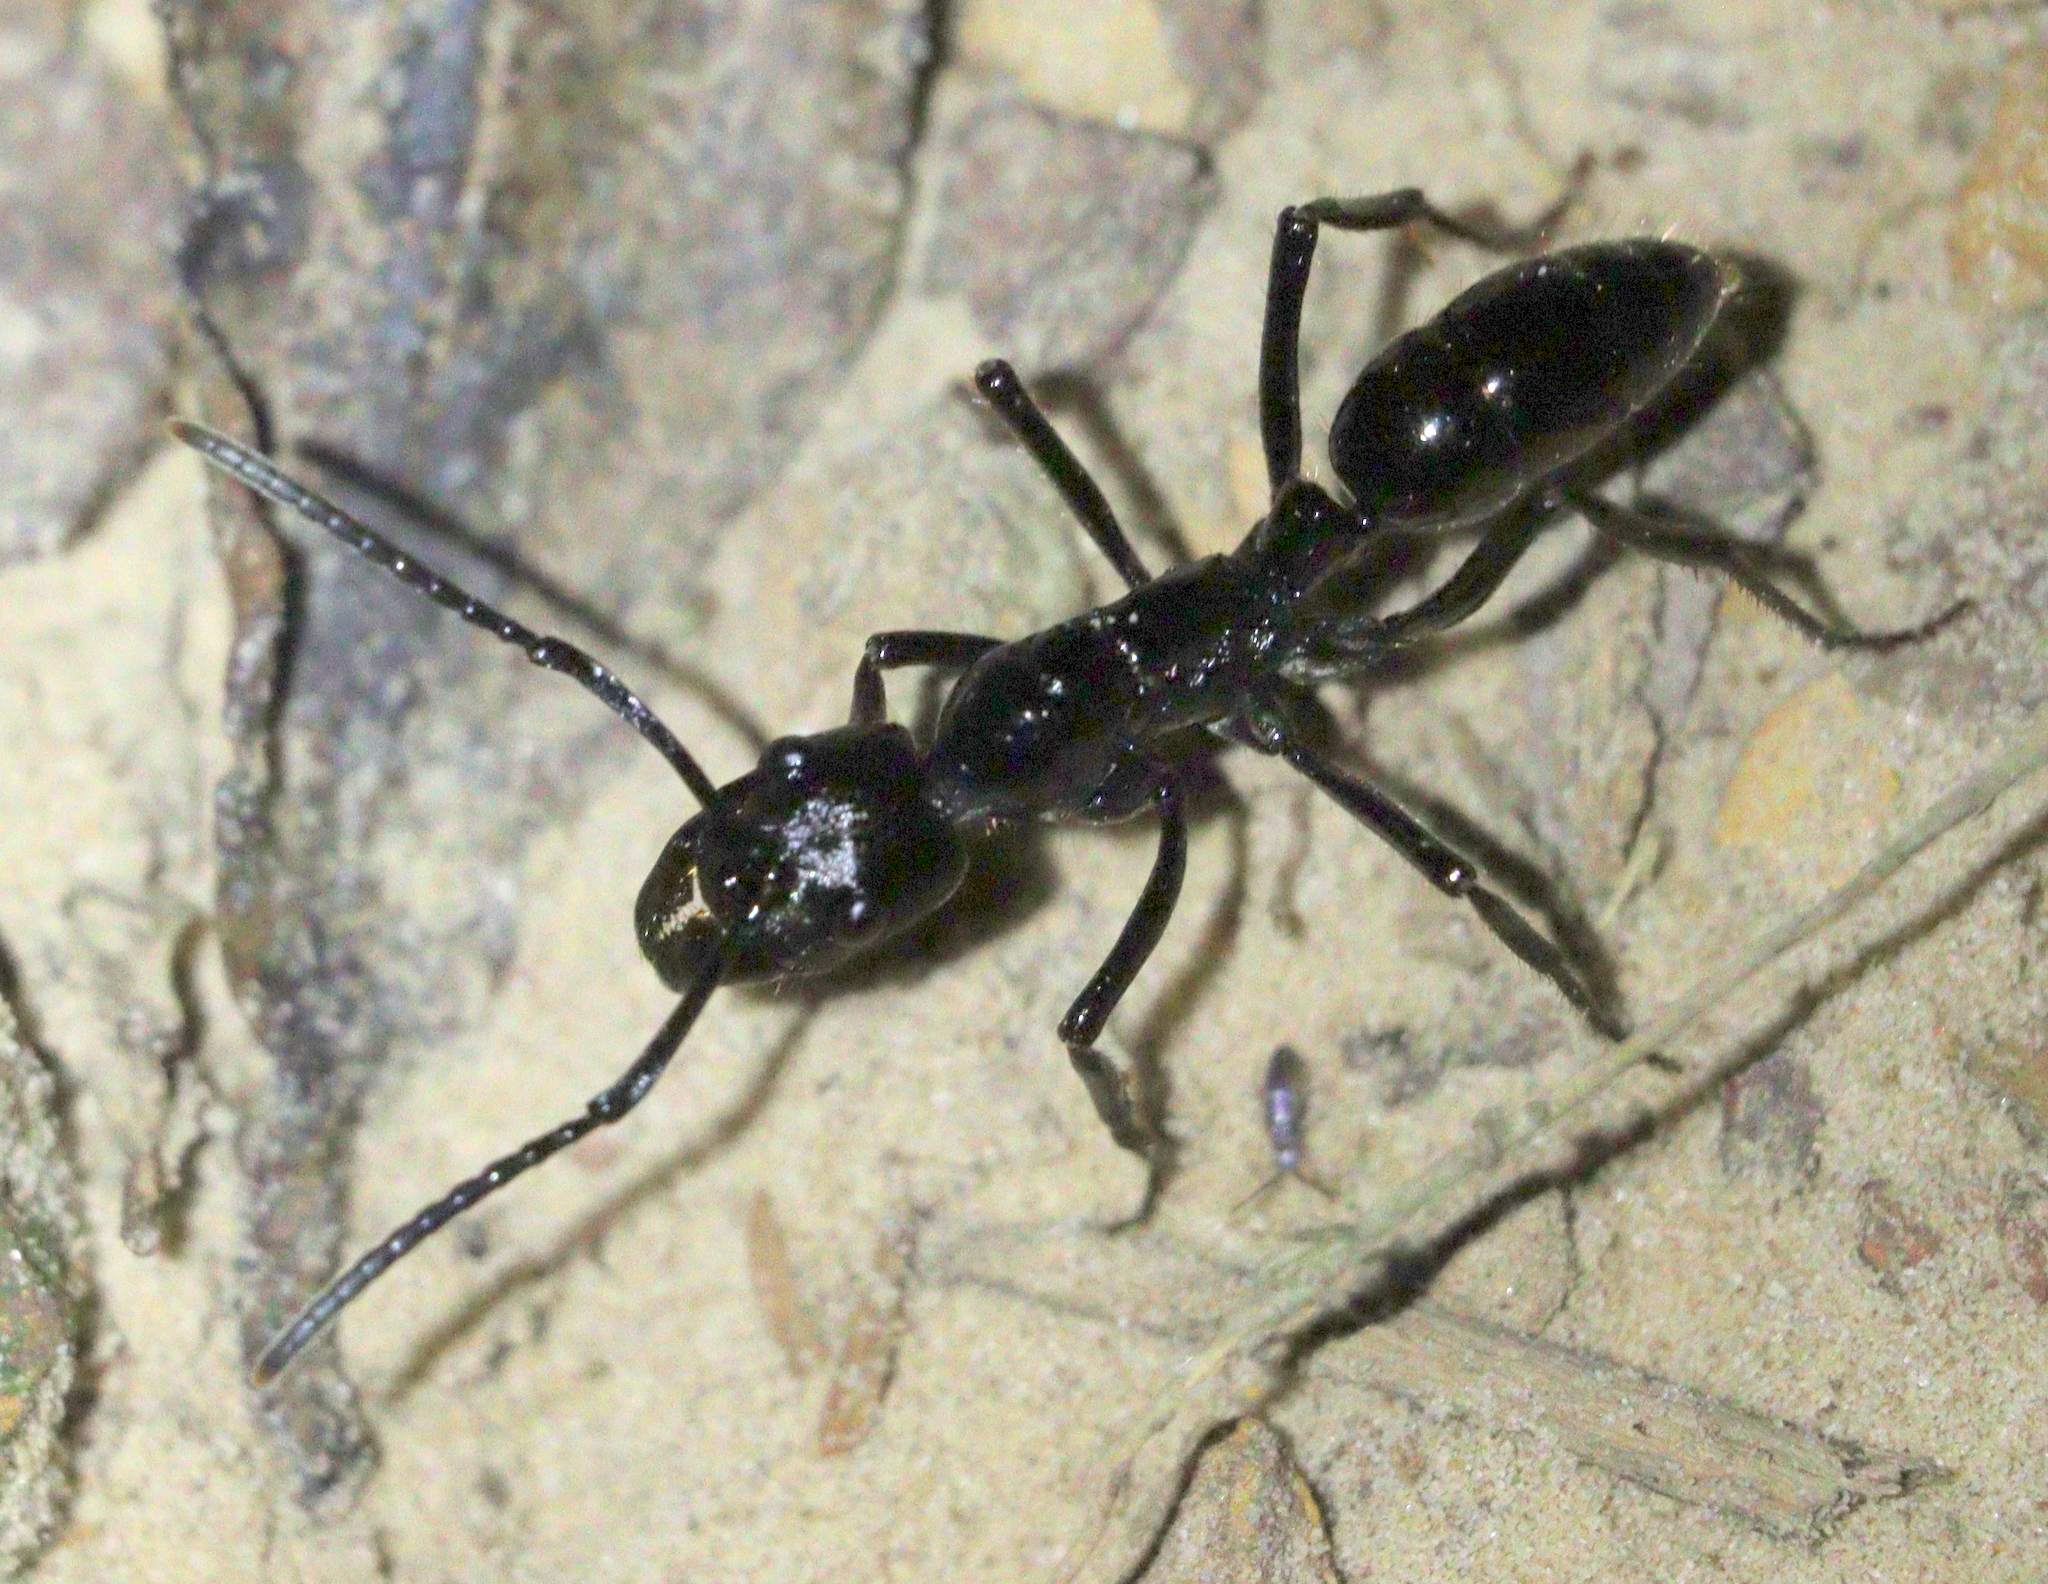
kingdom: Animalia
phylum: Arthropoda
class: Insecta
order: Hymenoptera
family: Formicidae
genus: Pachycondyla
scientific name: Pachycondyla commutata
